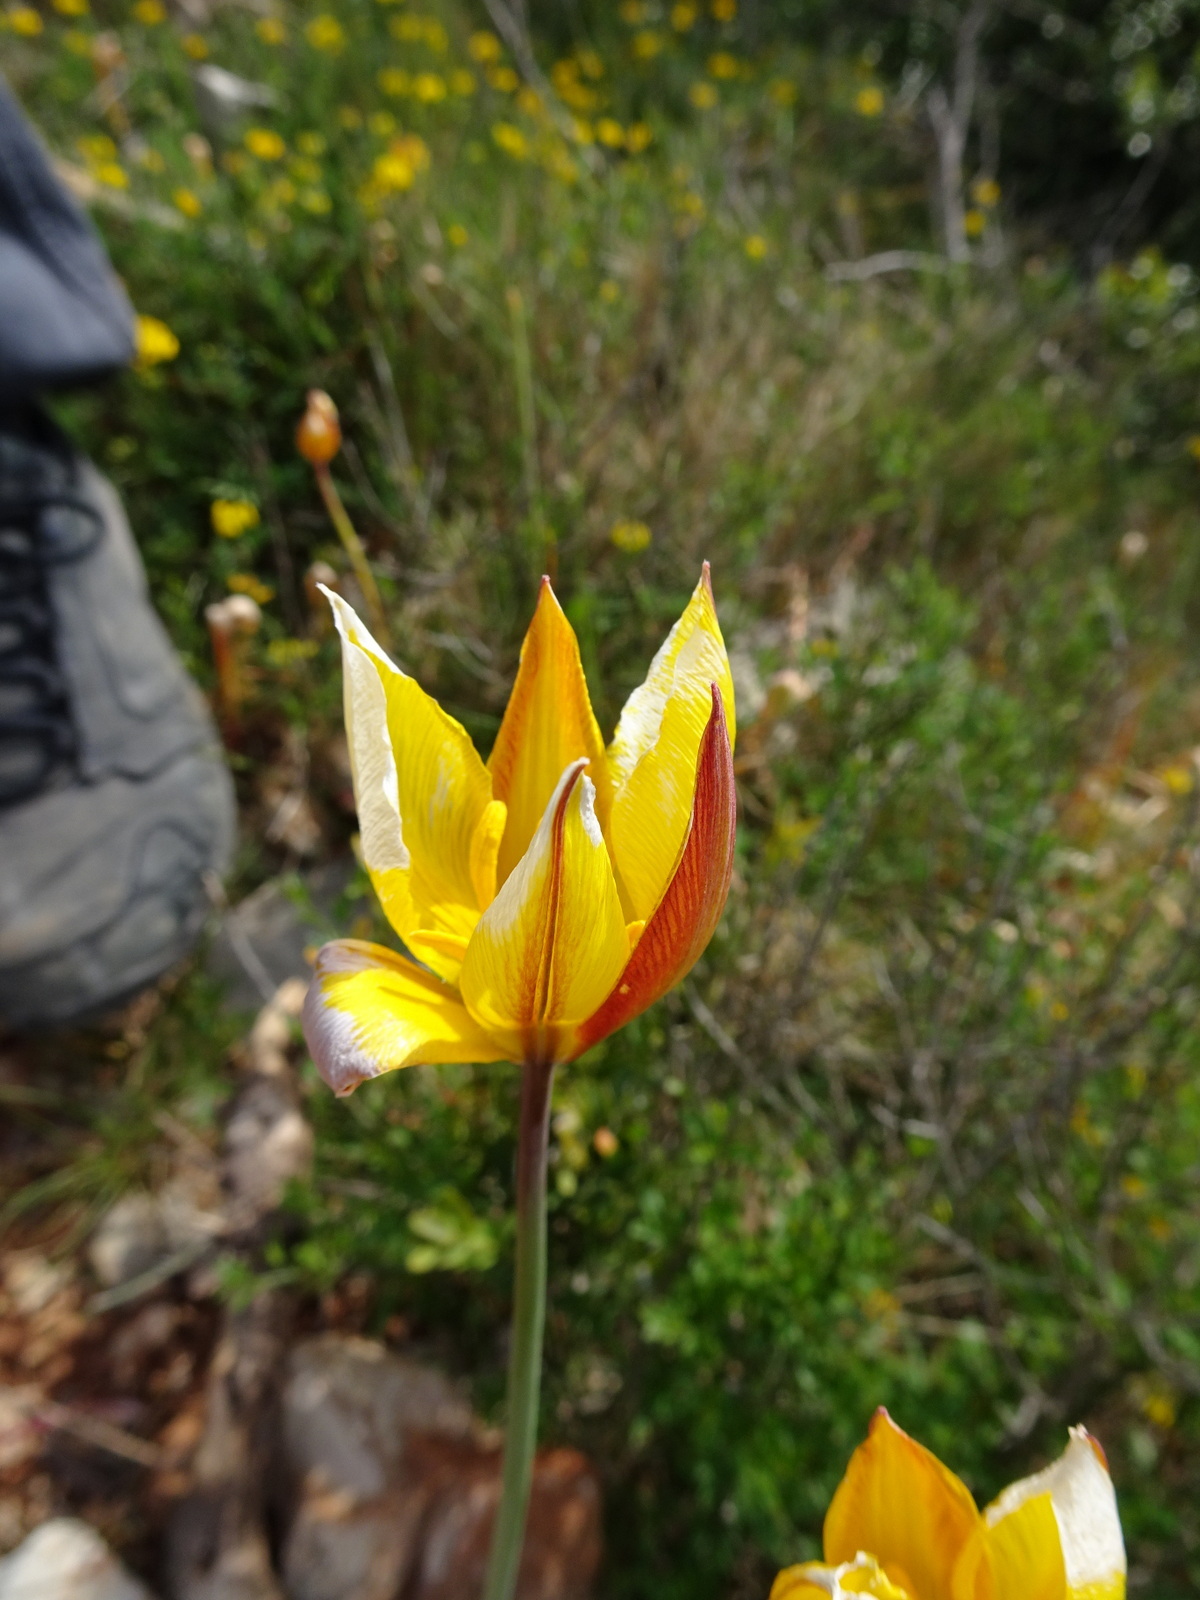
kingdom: Plantae
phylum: Tracheophyta
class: Liliopsida
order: Liliales
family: Liliaceae
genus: Tulipa
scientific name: Tulipa sylvestris
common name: Wild tulip
